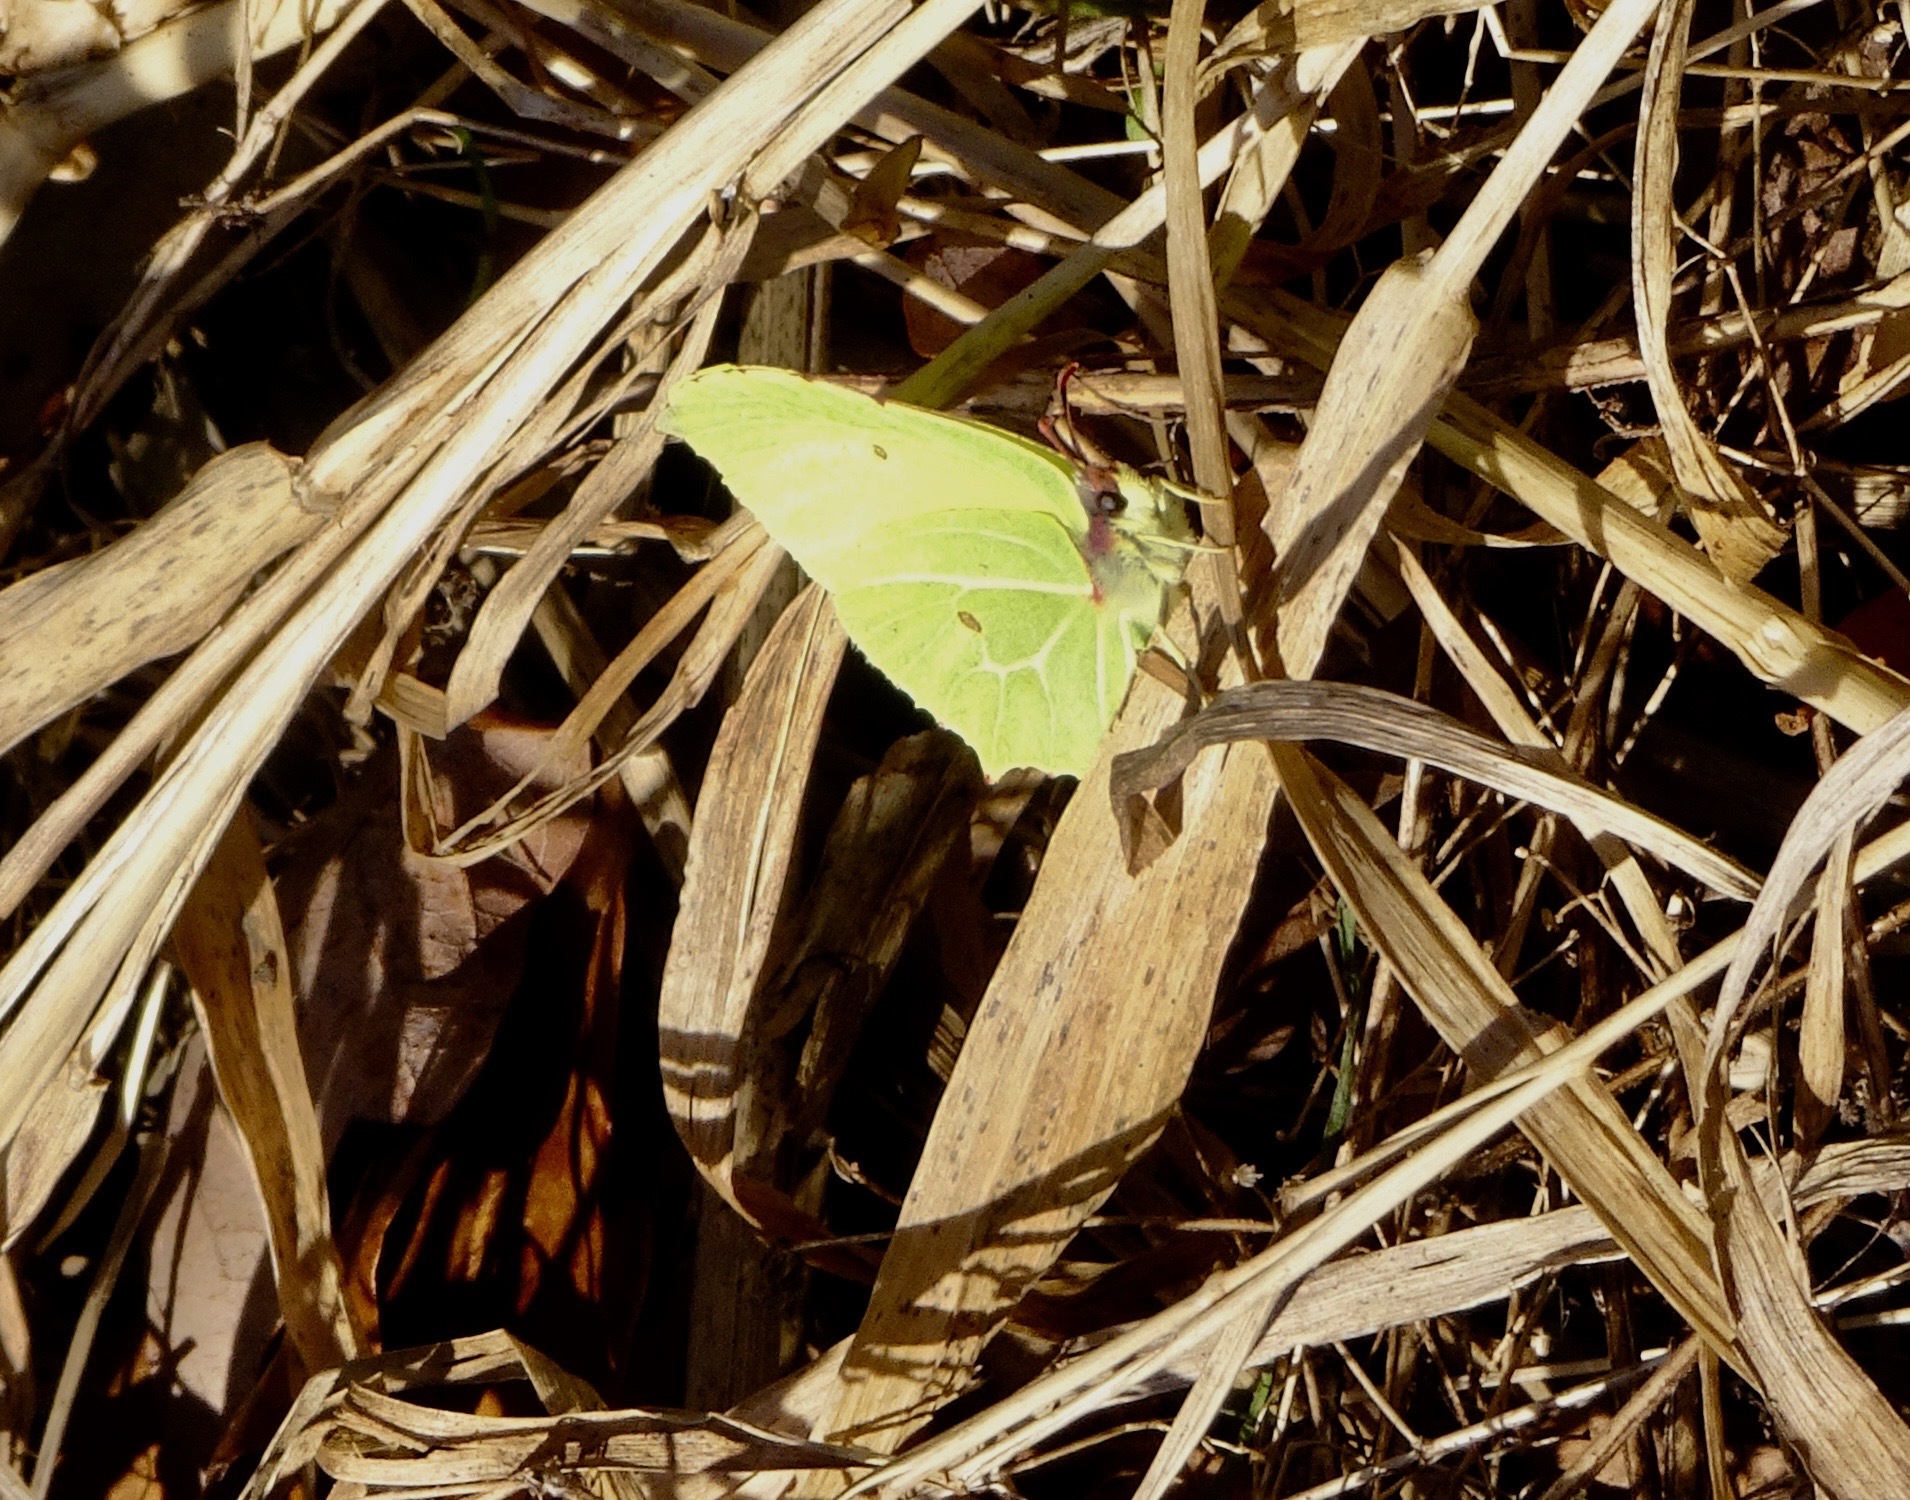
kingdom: Animalia
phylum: Arthropoda
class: Insecta
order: Lepidoptera
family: Pieridae
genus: Gonepteryx
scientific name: Gonepteryx rhamni
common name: Brimstone
